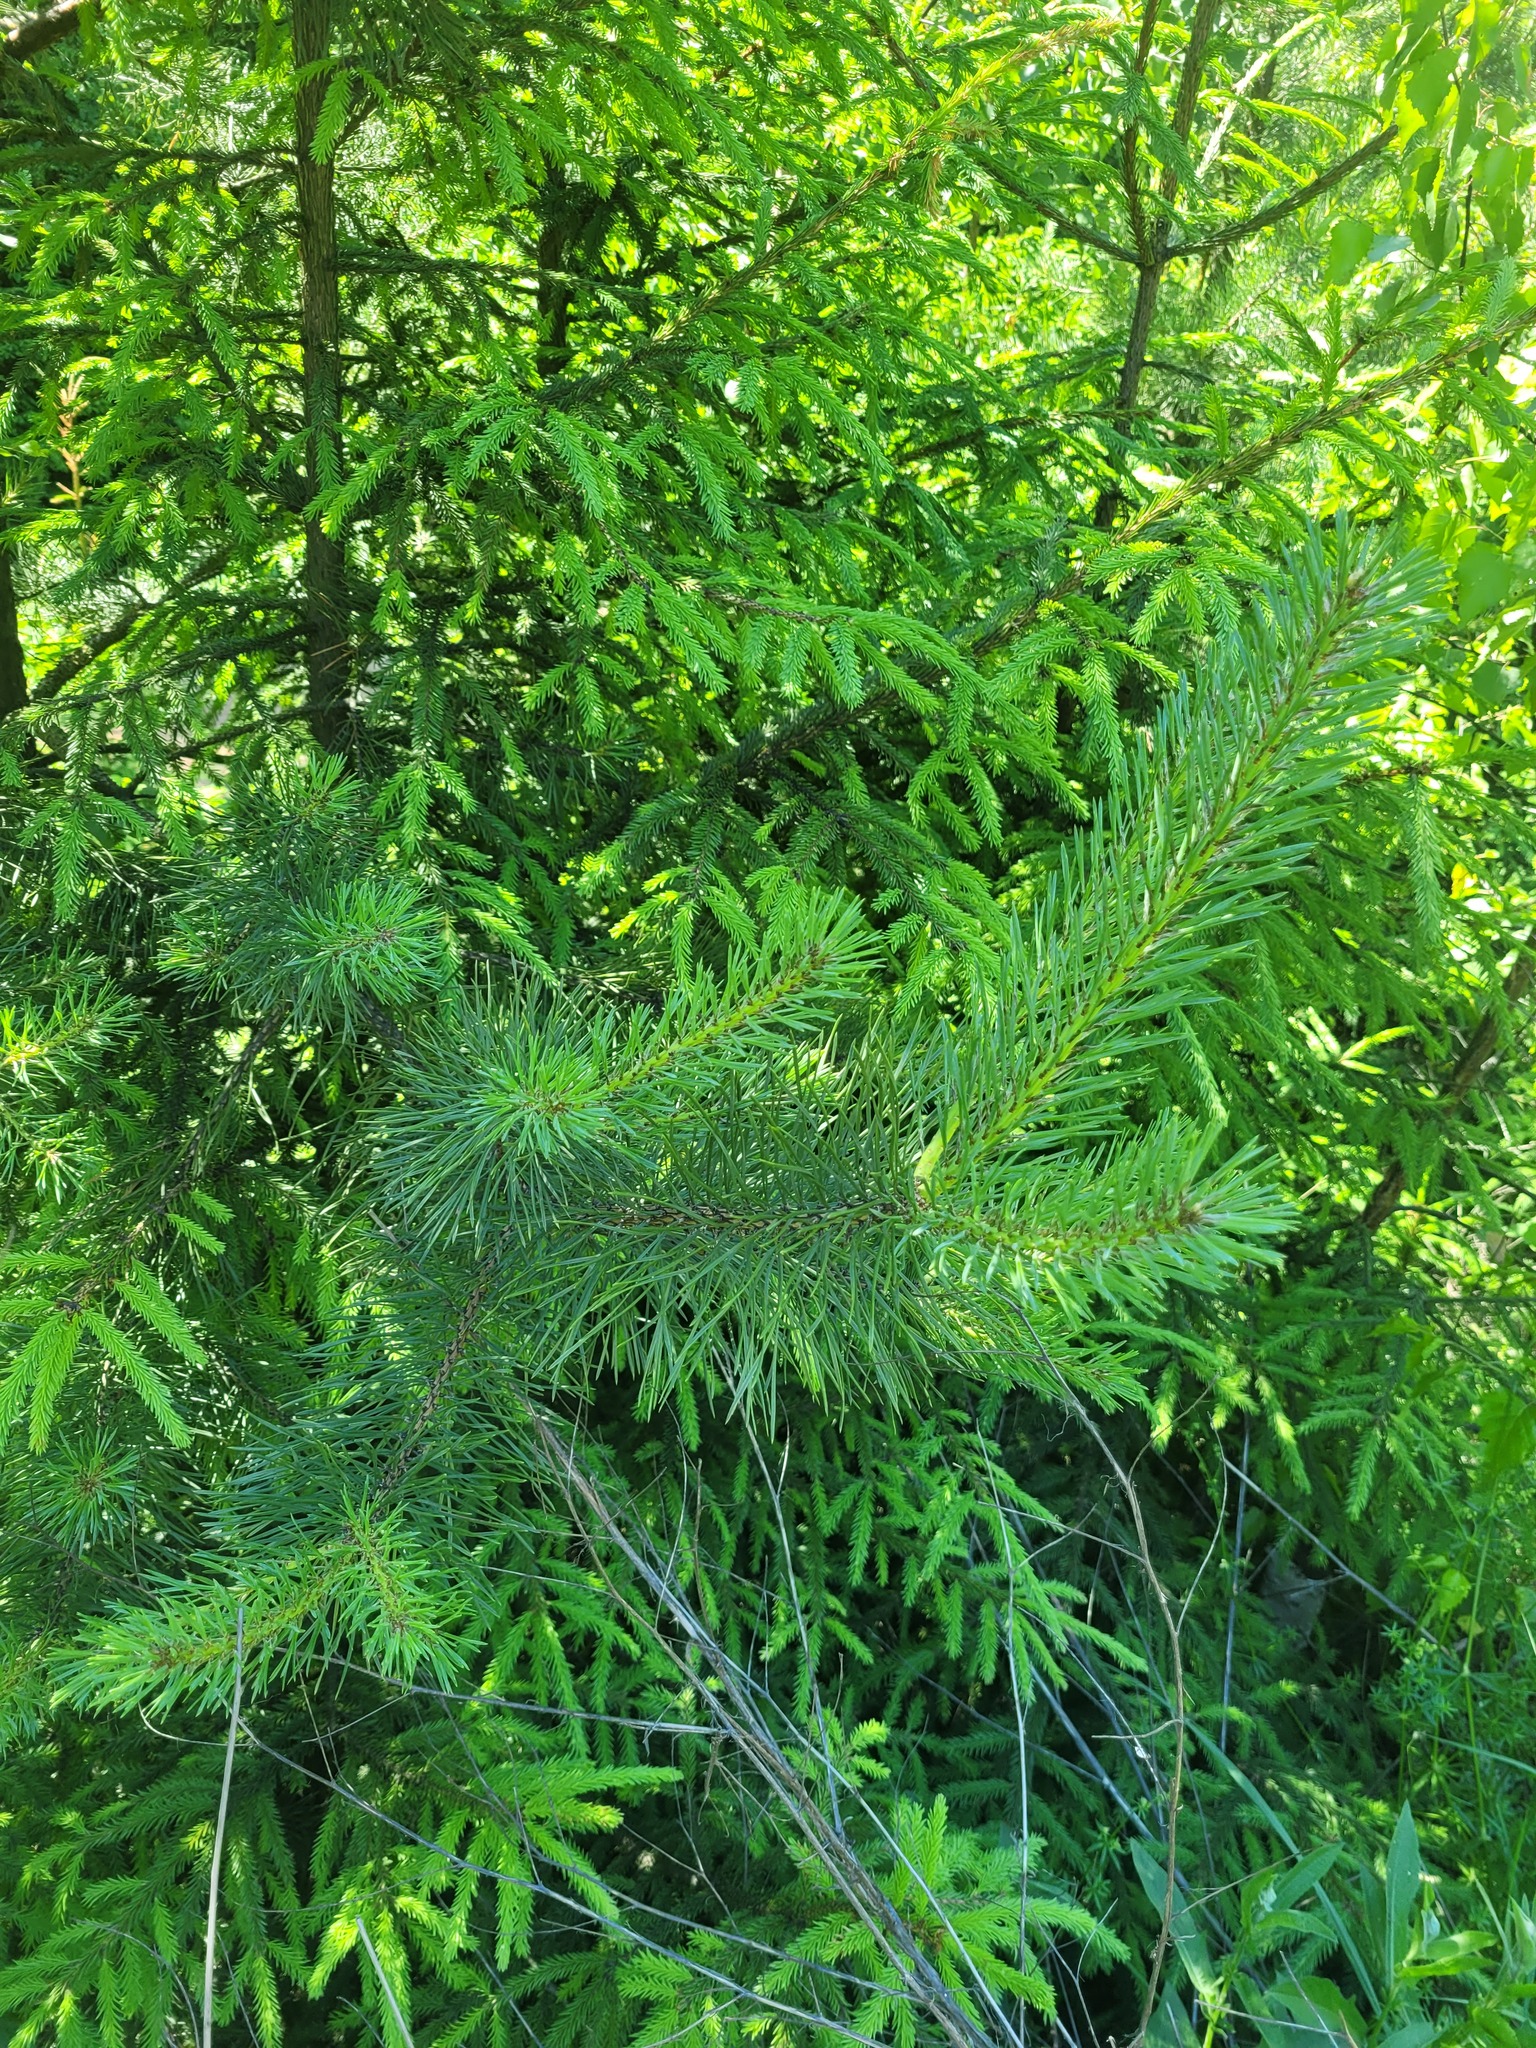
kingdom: Plantae
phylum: Tracheophyta
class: Pinopsida
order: Pinales
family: Pinaceae
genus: Pinus
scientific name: Pinus sylvestris
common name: Scots pine
